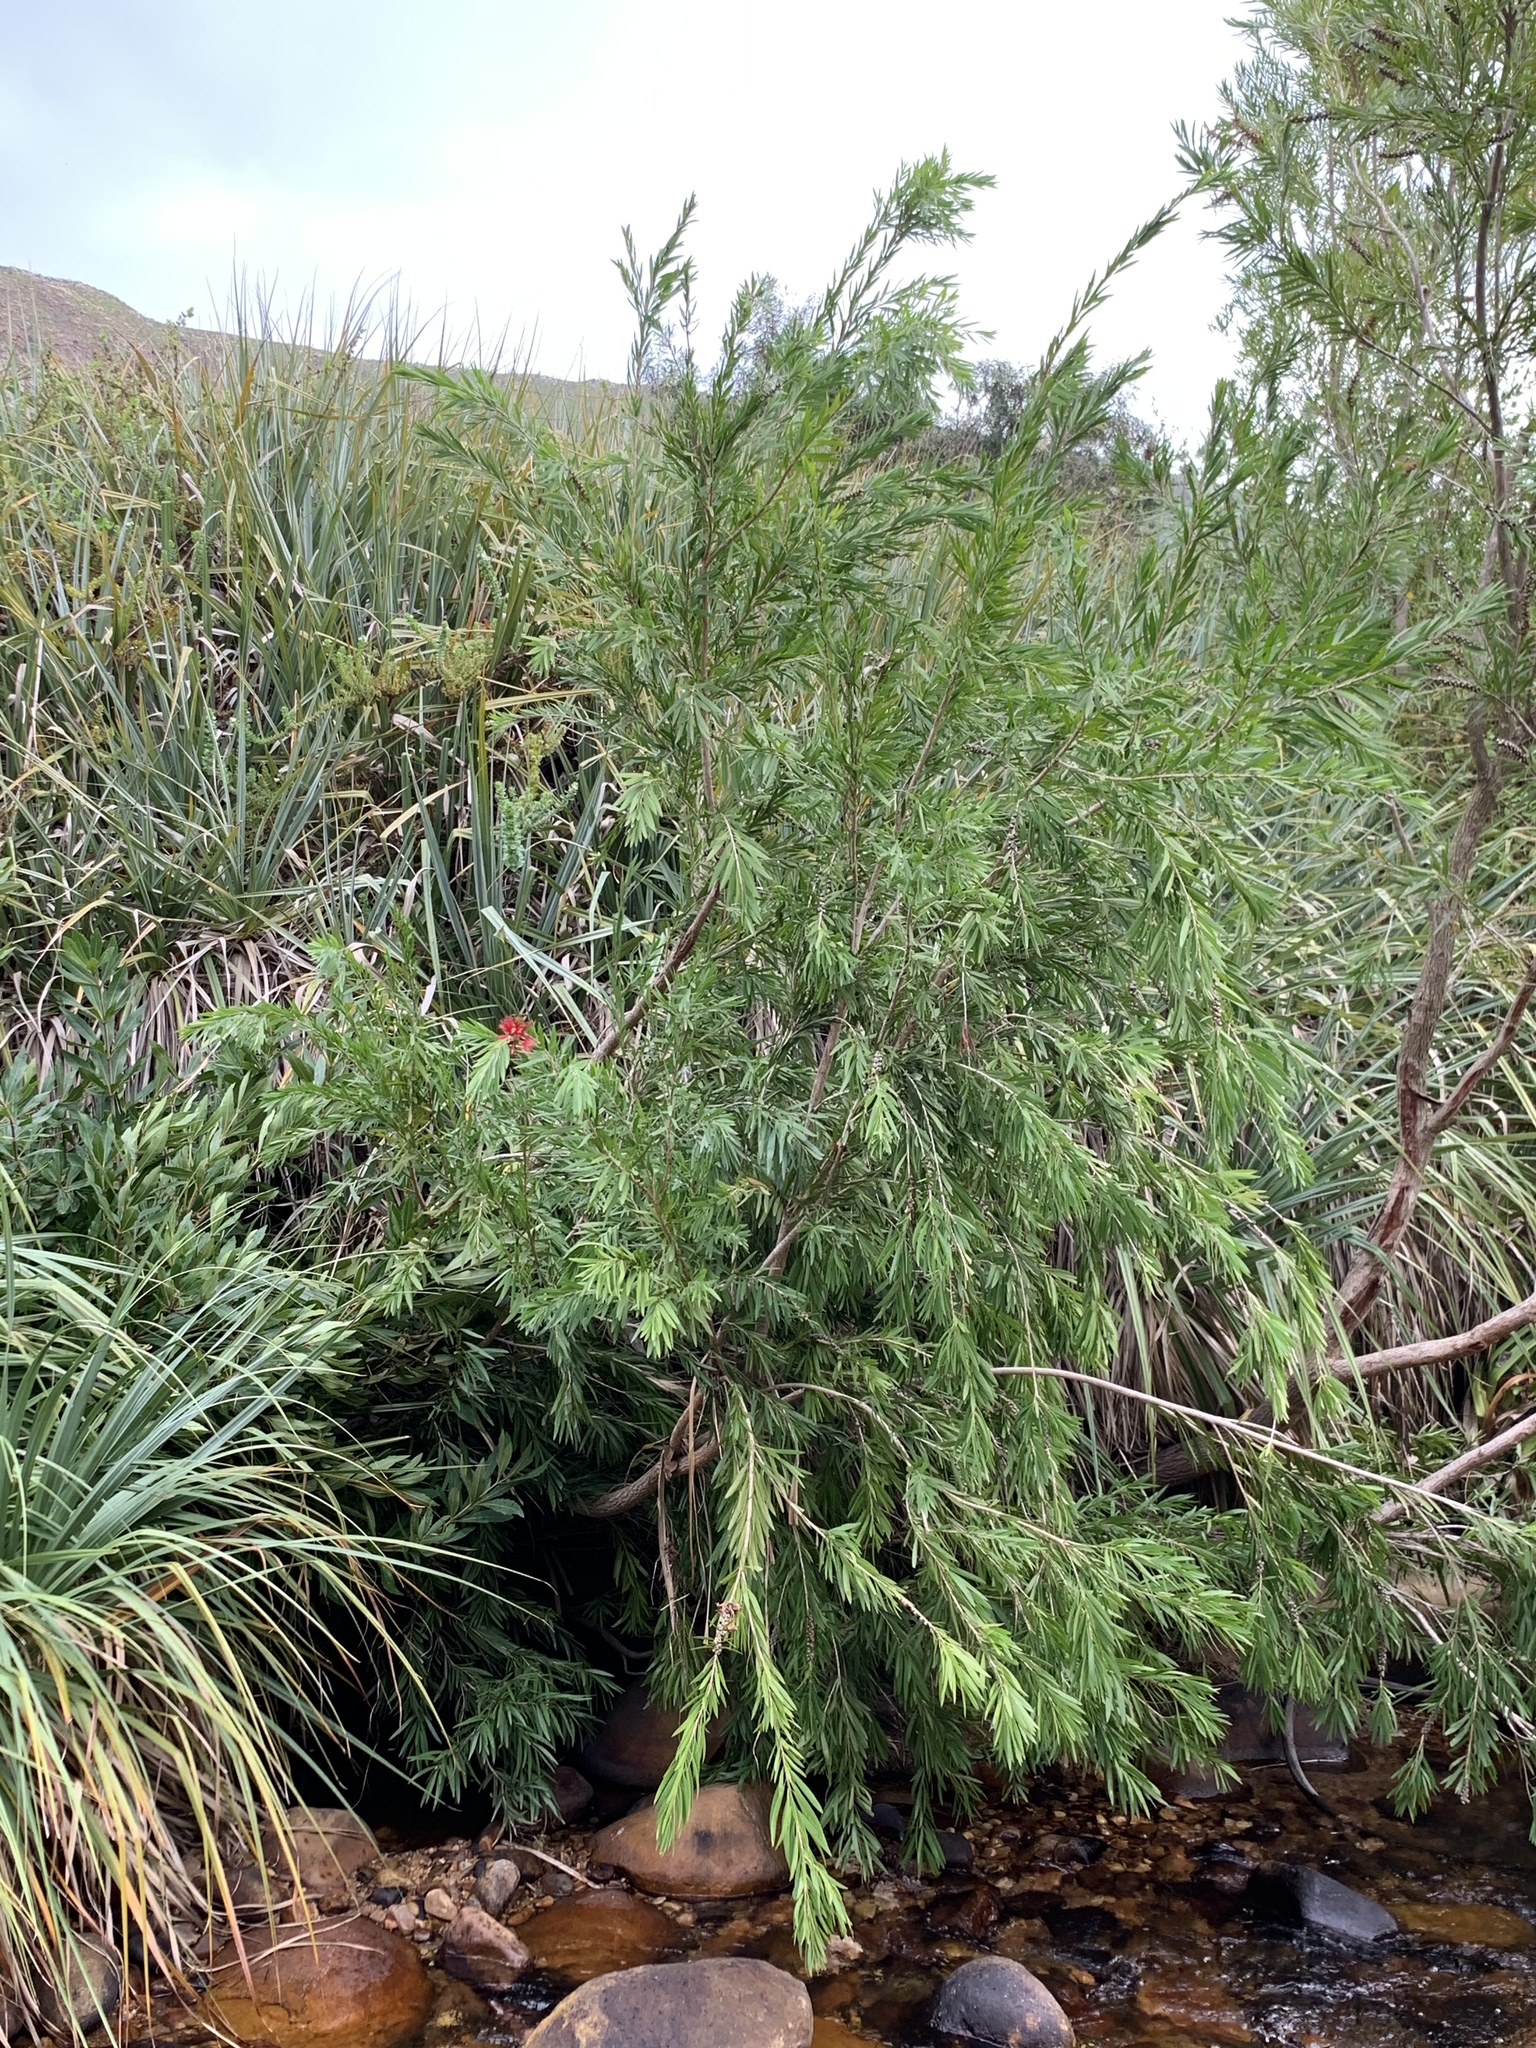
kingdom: Plantae
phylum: Tracheophyta
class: Magnoliopsida
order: Myrtales
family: Myrtaceae
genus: Callistemon
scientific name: Callistemon viminalis
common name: Drooping bottlebrush
